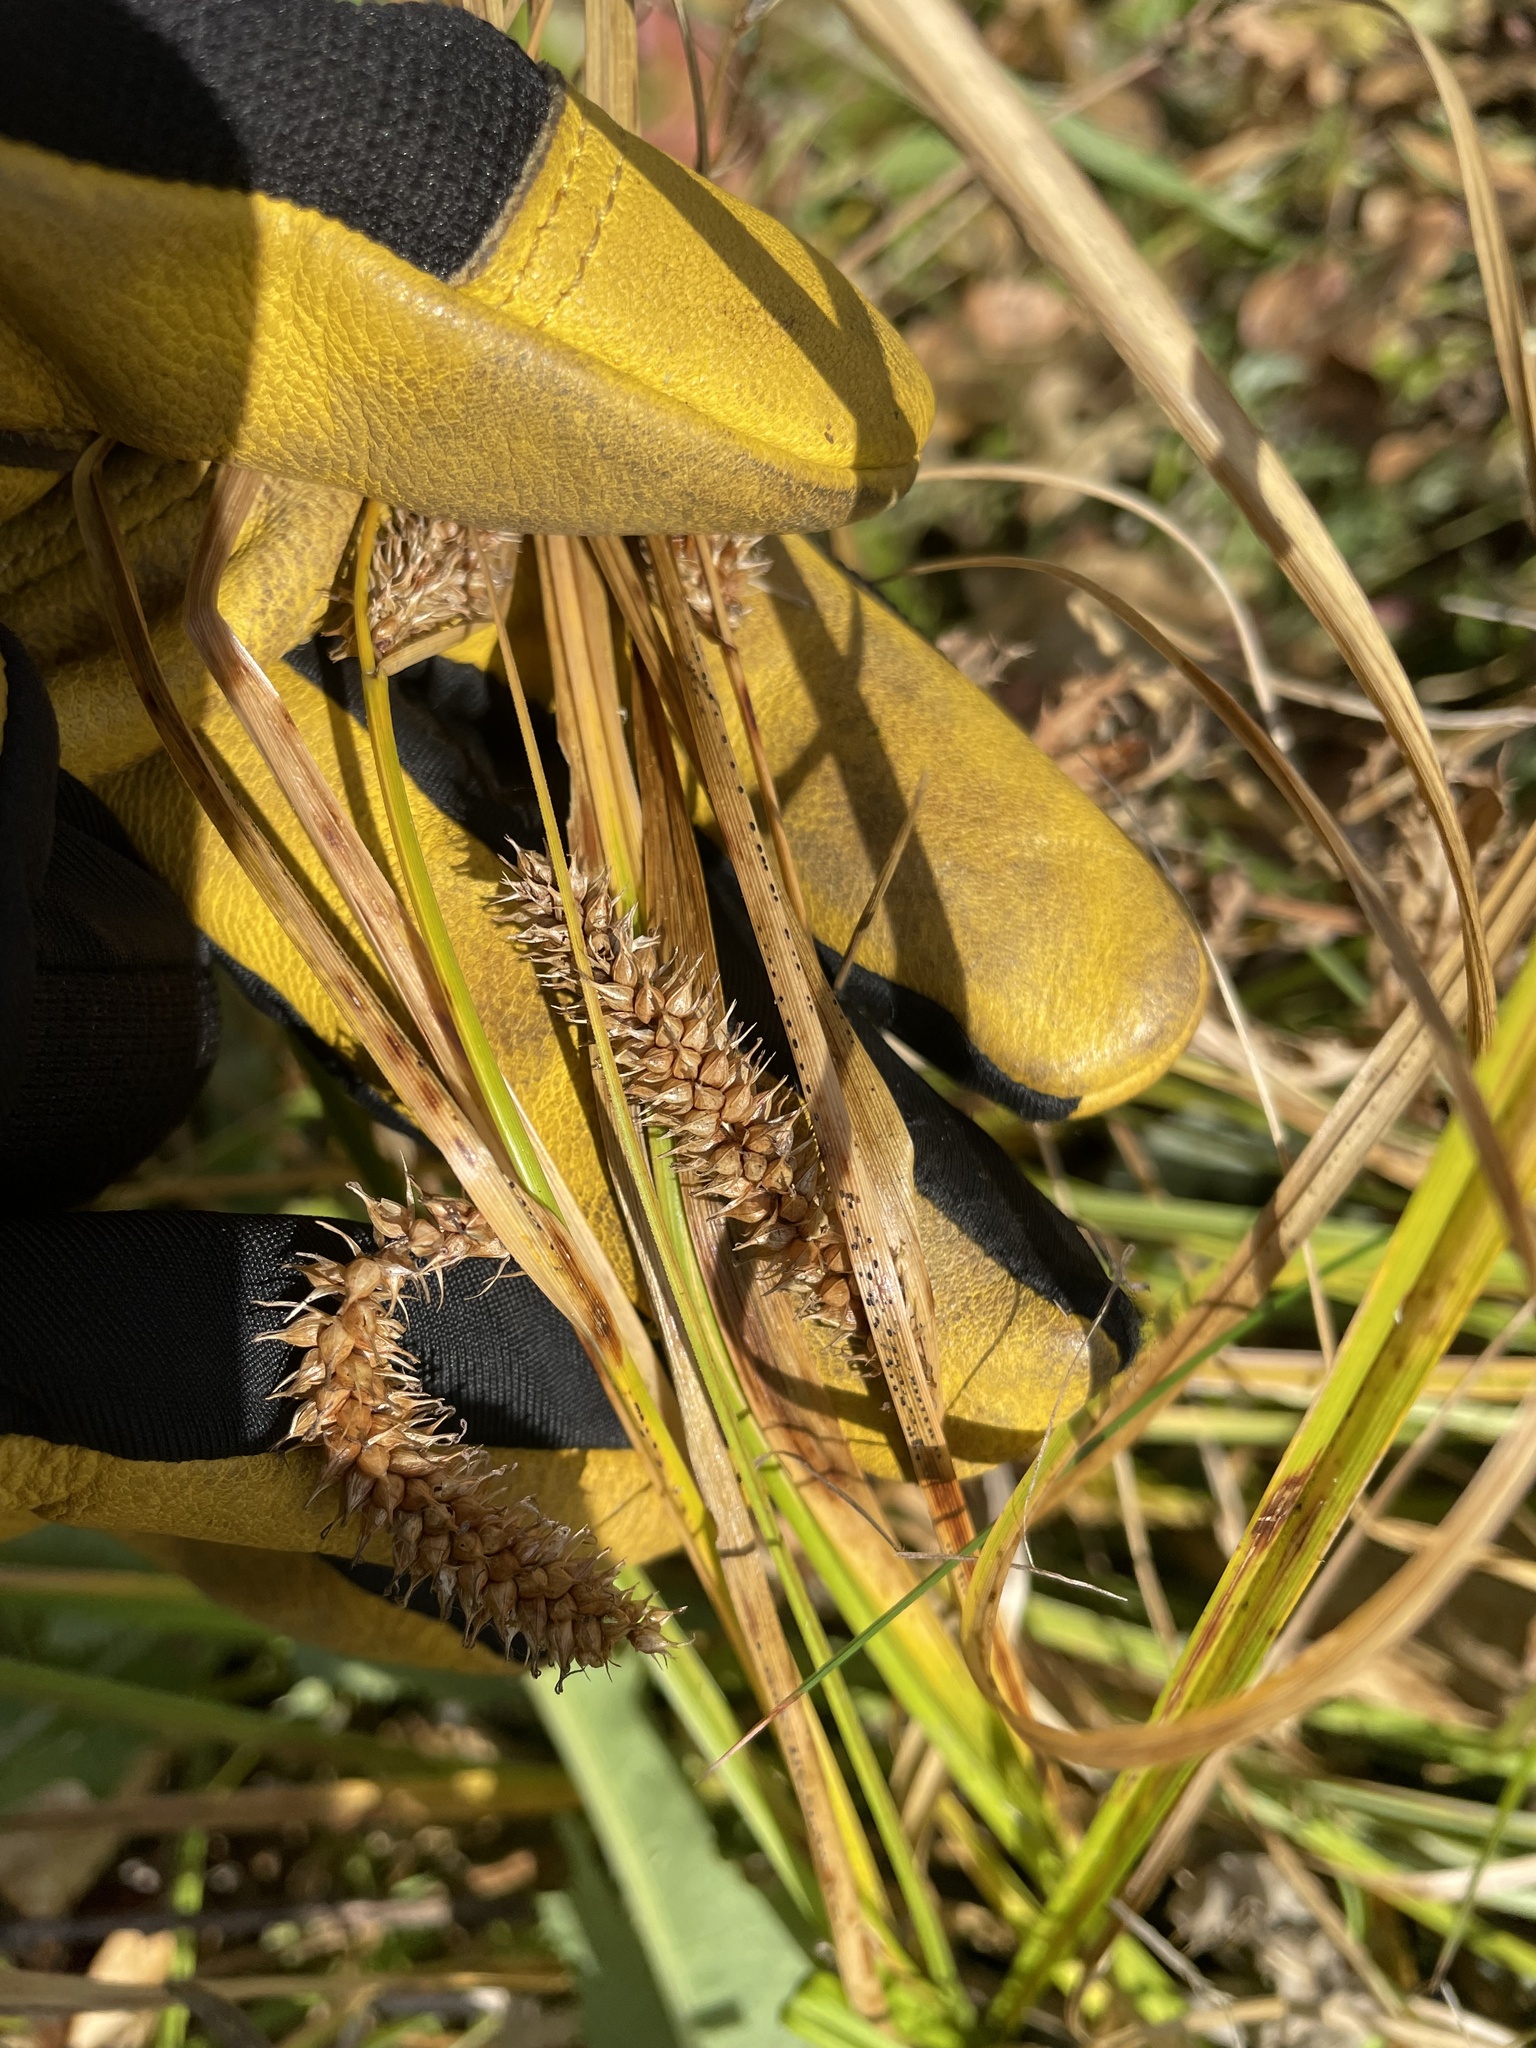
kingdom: Plantae
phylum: Tracheophyta
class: Liliopsida
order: Poales
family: Cyperaceae
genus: Carex
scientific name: Carex utriculata
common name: Beaked sedge
